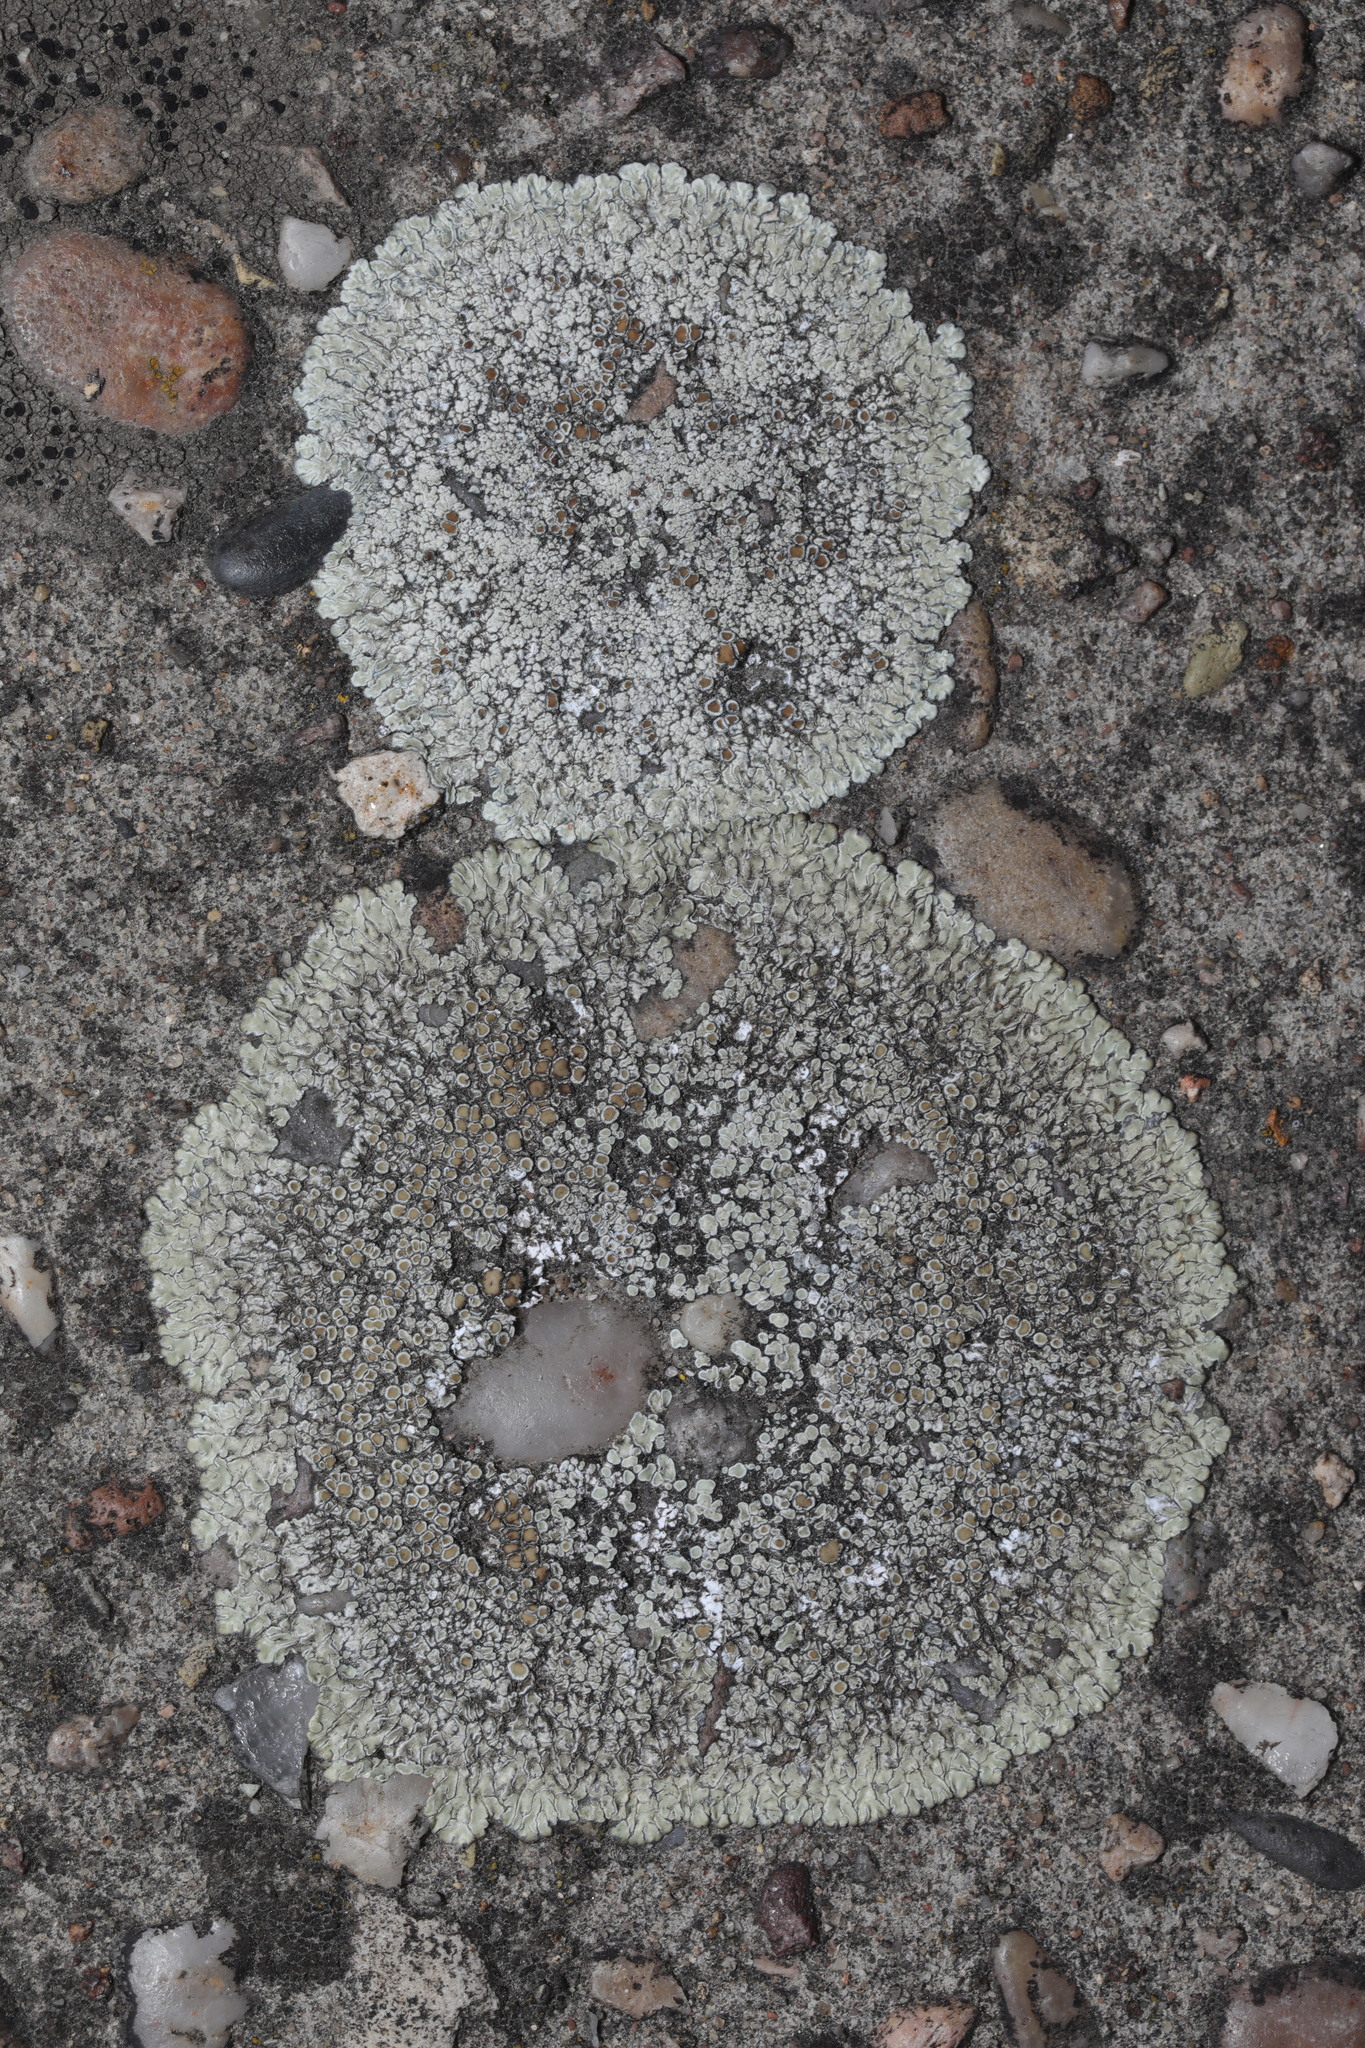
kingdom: Fungi
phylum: Ascomycota
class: Lecanoromycetes
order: Lecanorales
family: Lecanoraceae
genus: Protoparmeliopsis
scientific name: Protoparmeliopsis muralis
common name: Stonewall rim lichen
